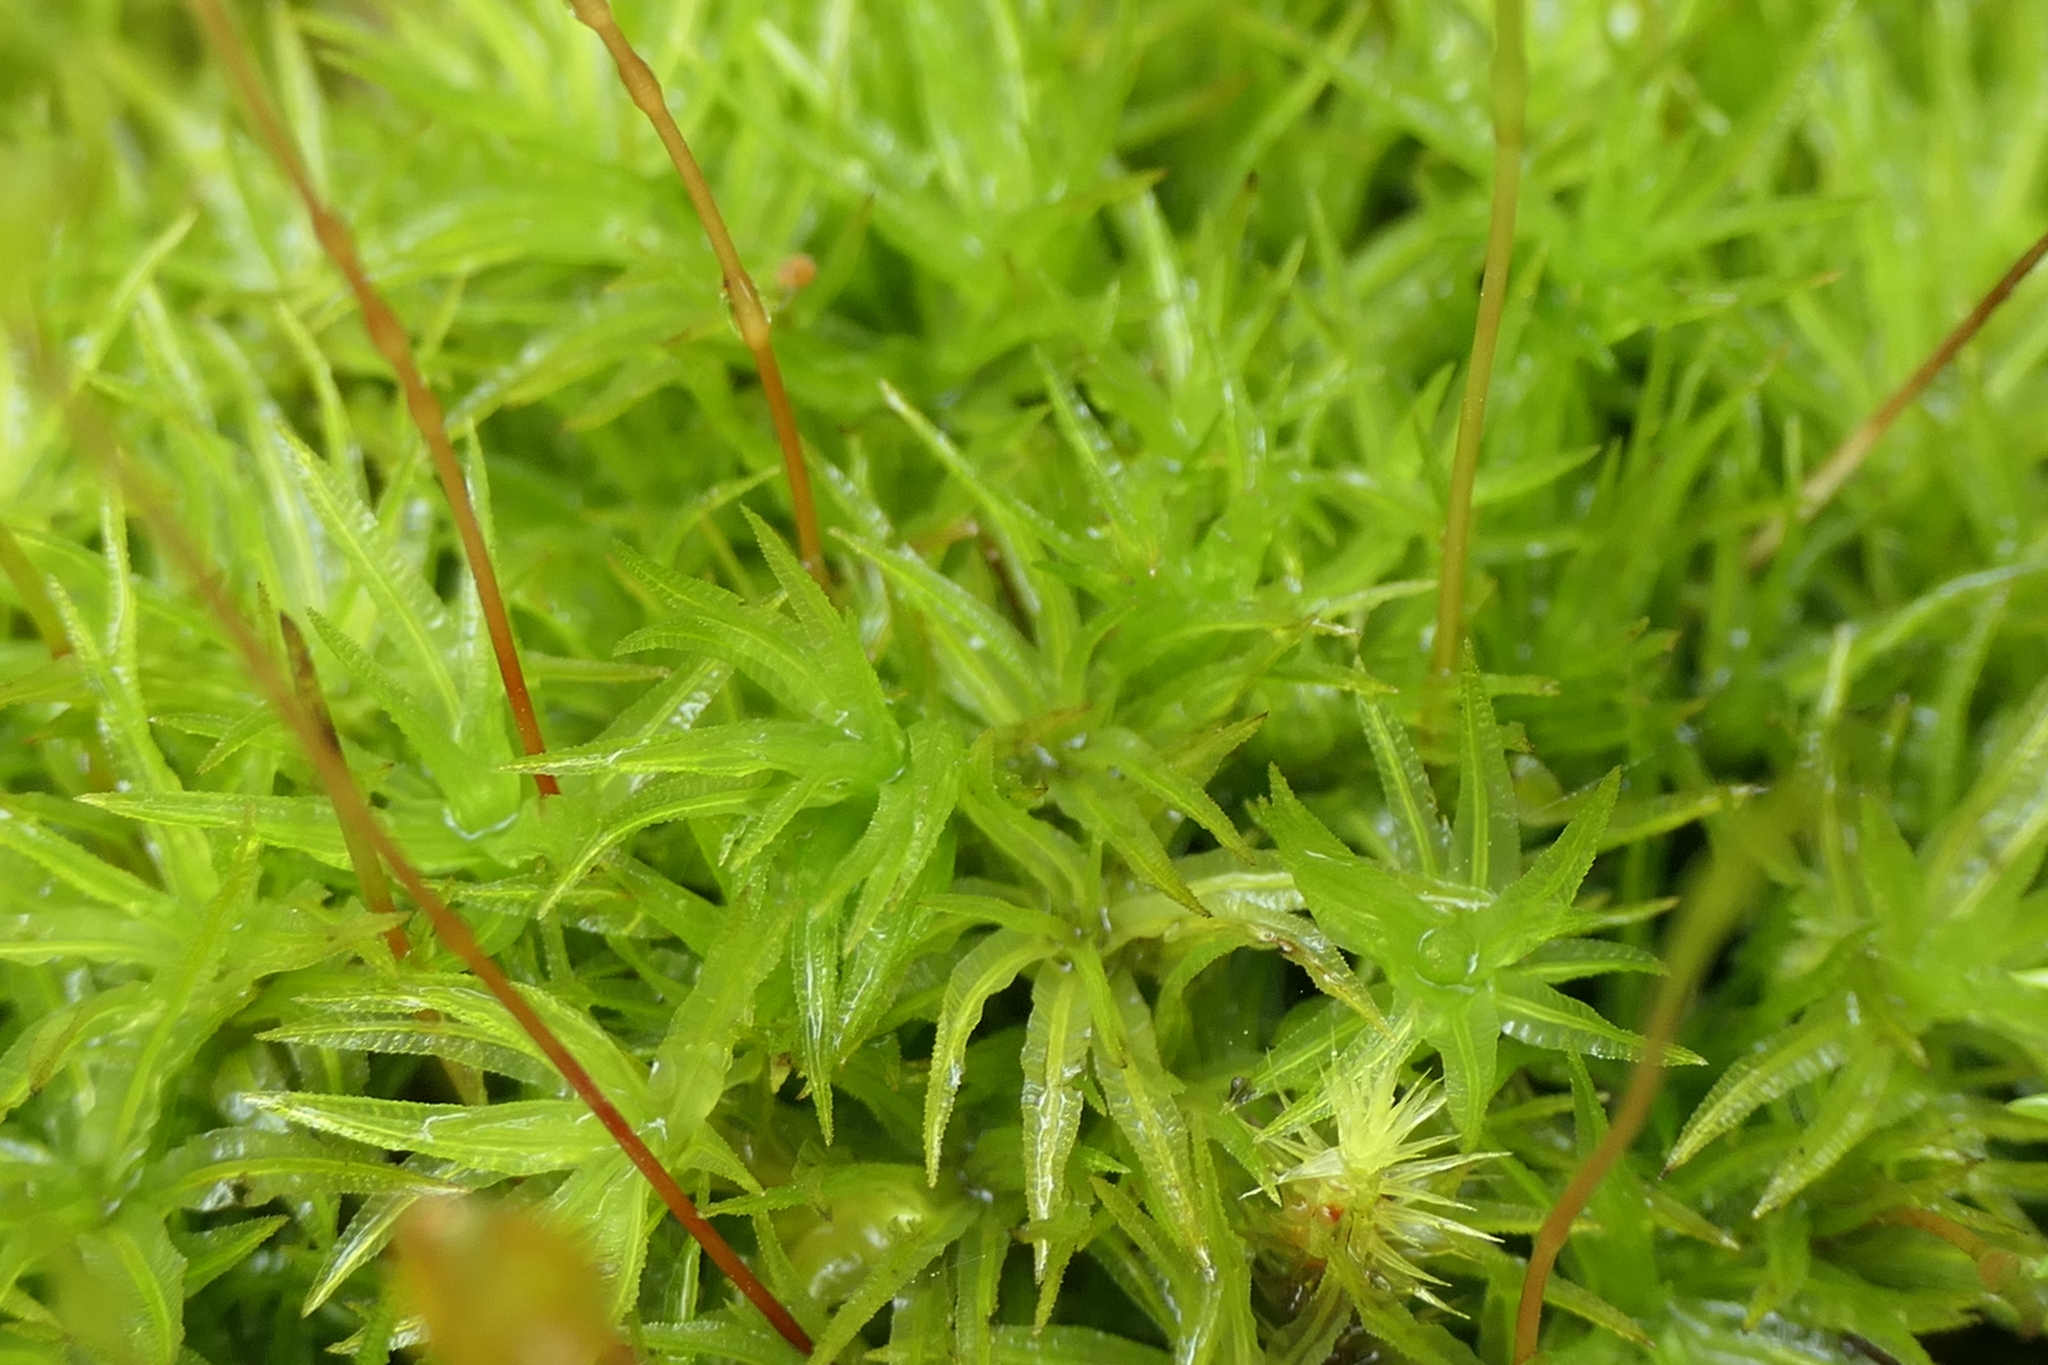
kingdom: Plantae
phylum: Bryophyta
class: Polytrichopsida
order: Polytrichales
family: Polytrichaceae
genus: Atrichum
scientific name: Atrichum undulatum
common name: Common smoothcap
